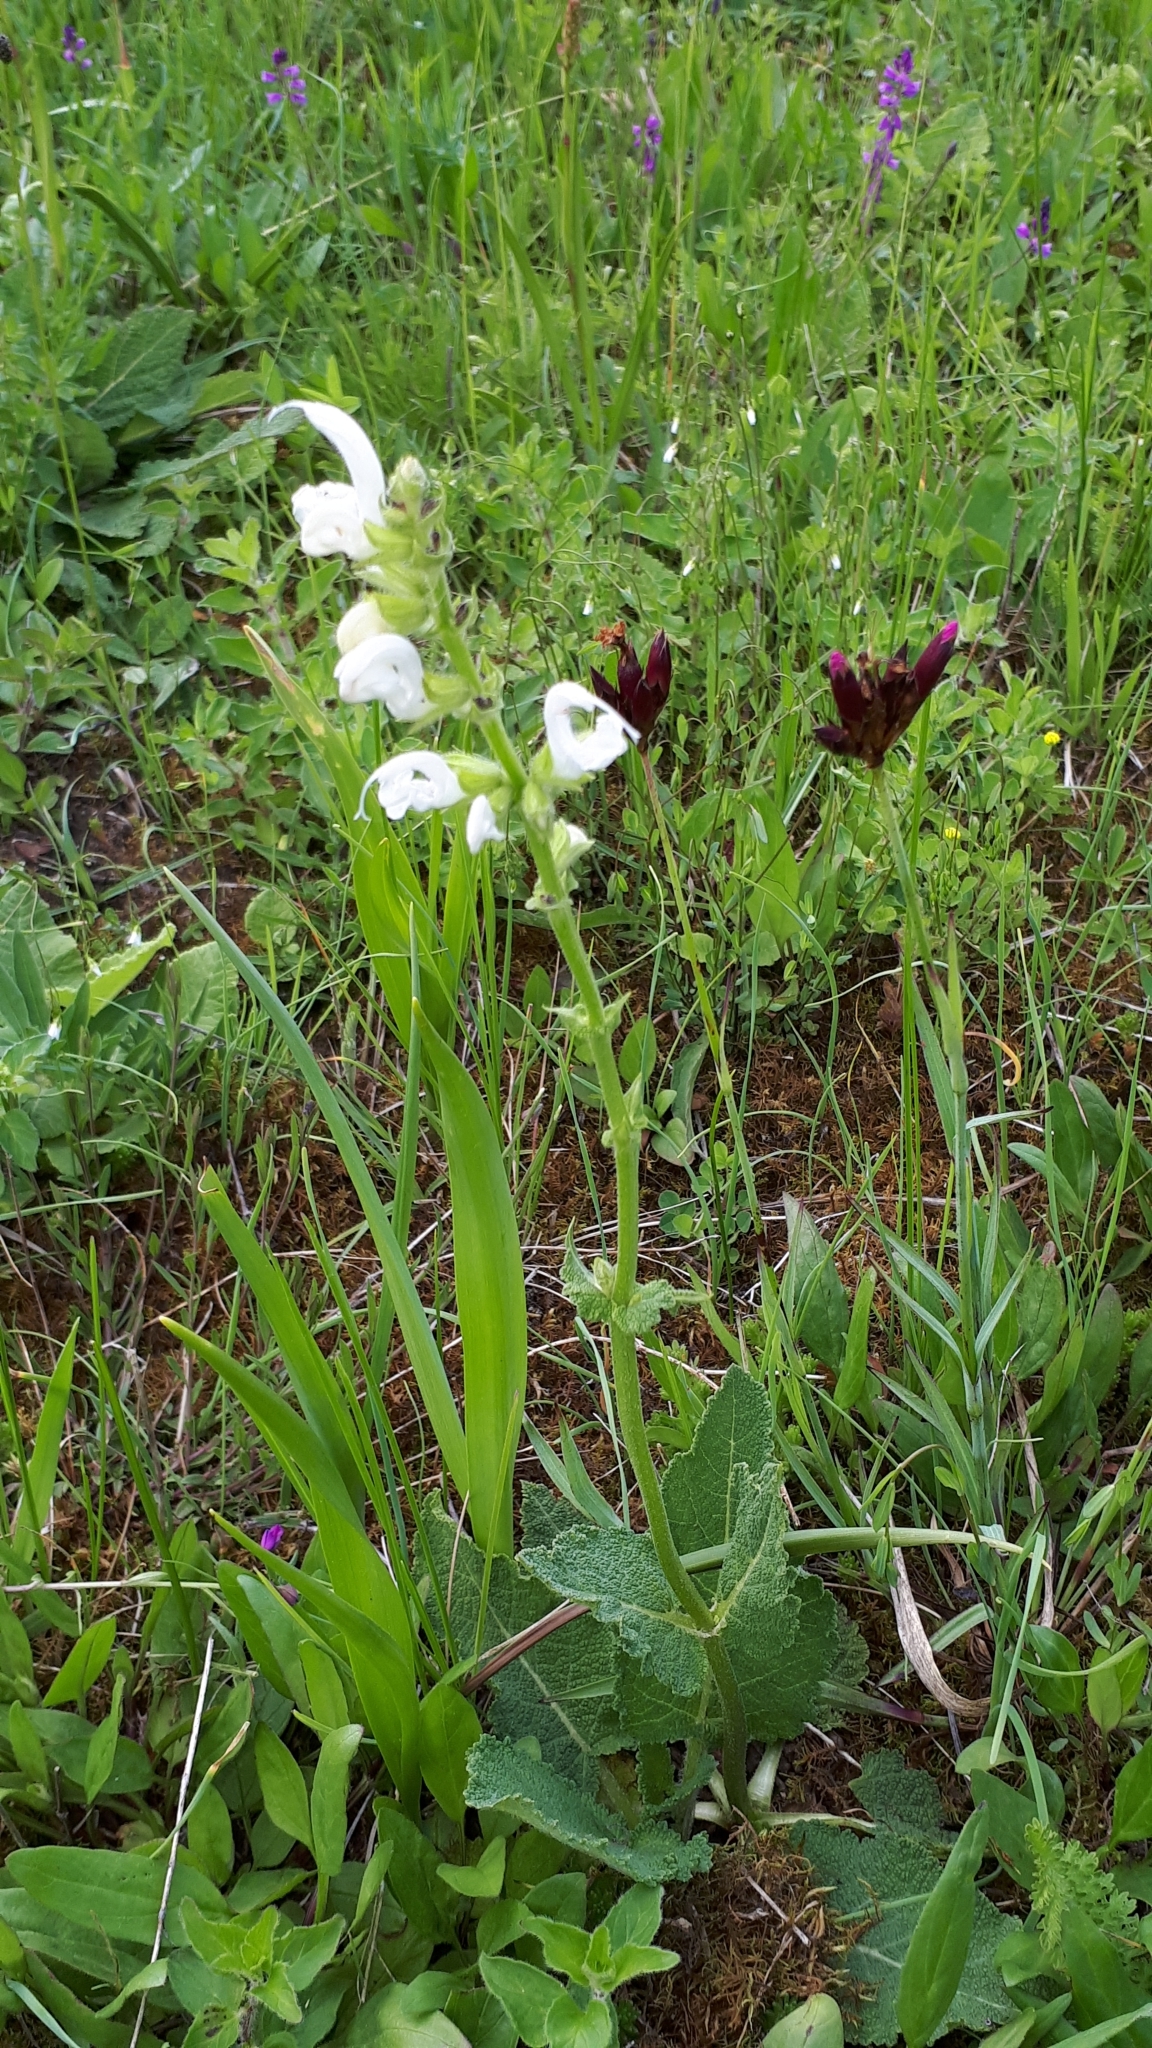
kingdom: Plantae
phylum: Tracheophyta
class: Magnoliopsida
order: Lamiales
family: Lamiaceae
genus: Salvia
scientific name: Salvia pratensis
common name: Meadow sage
